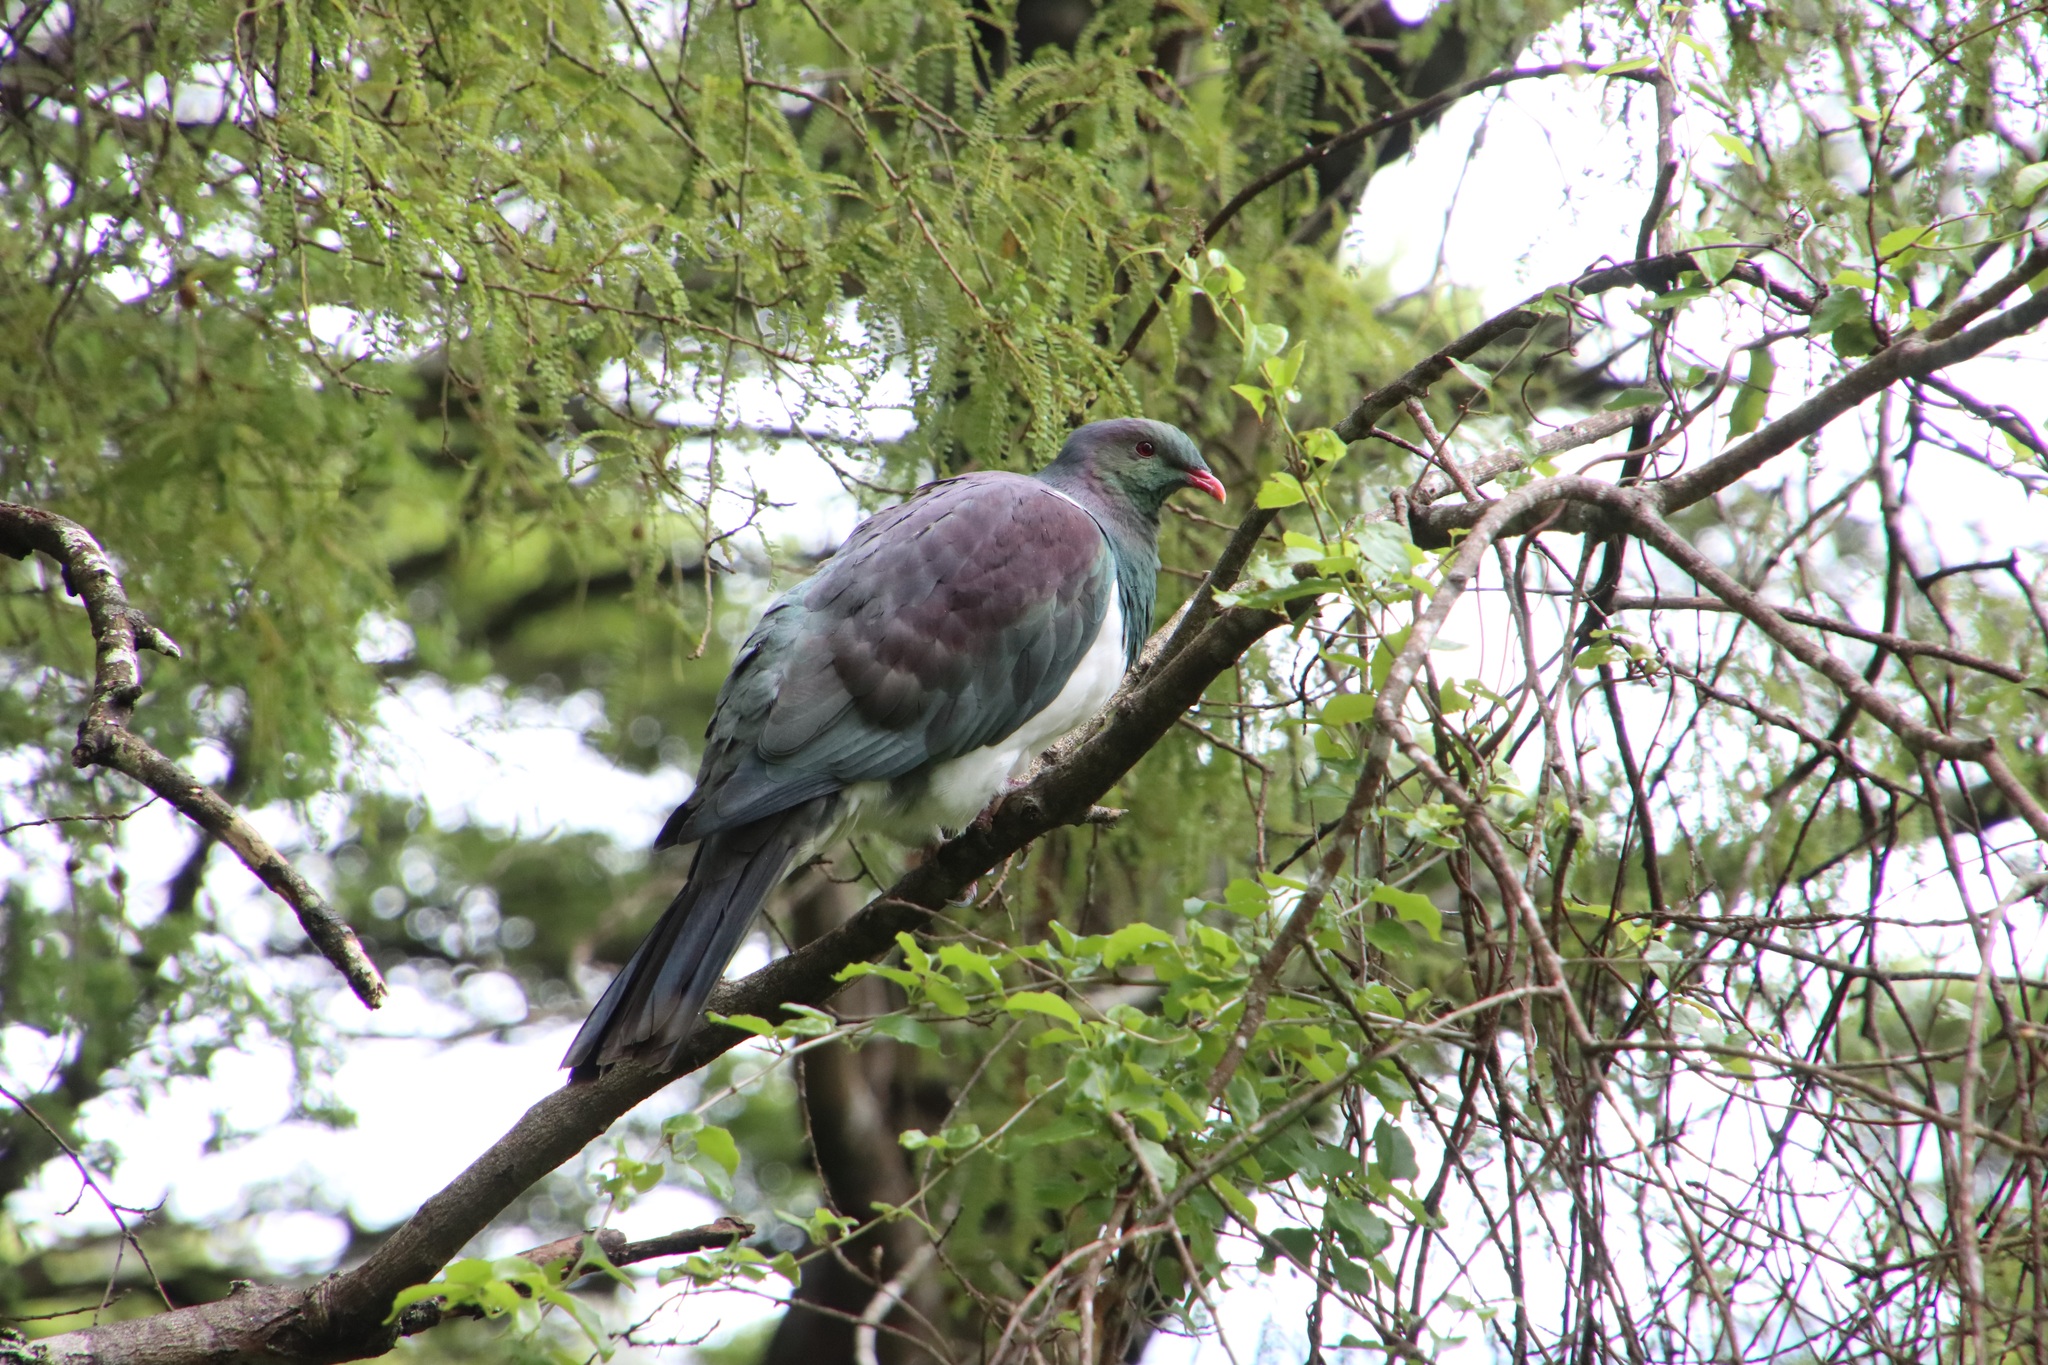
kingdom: Animalia
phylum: Chordata
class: Aves
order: Columbiformes
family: Columbidae
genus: Hemiphaga
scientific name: Hemiphaga novaeseelandiae
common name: New zealand pigeon
